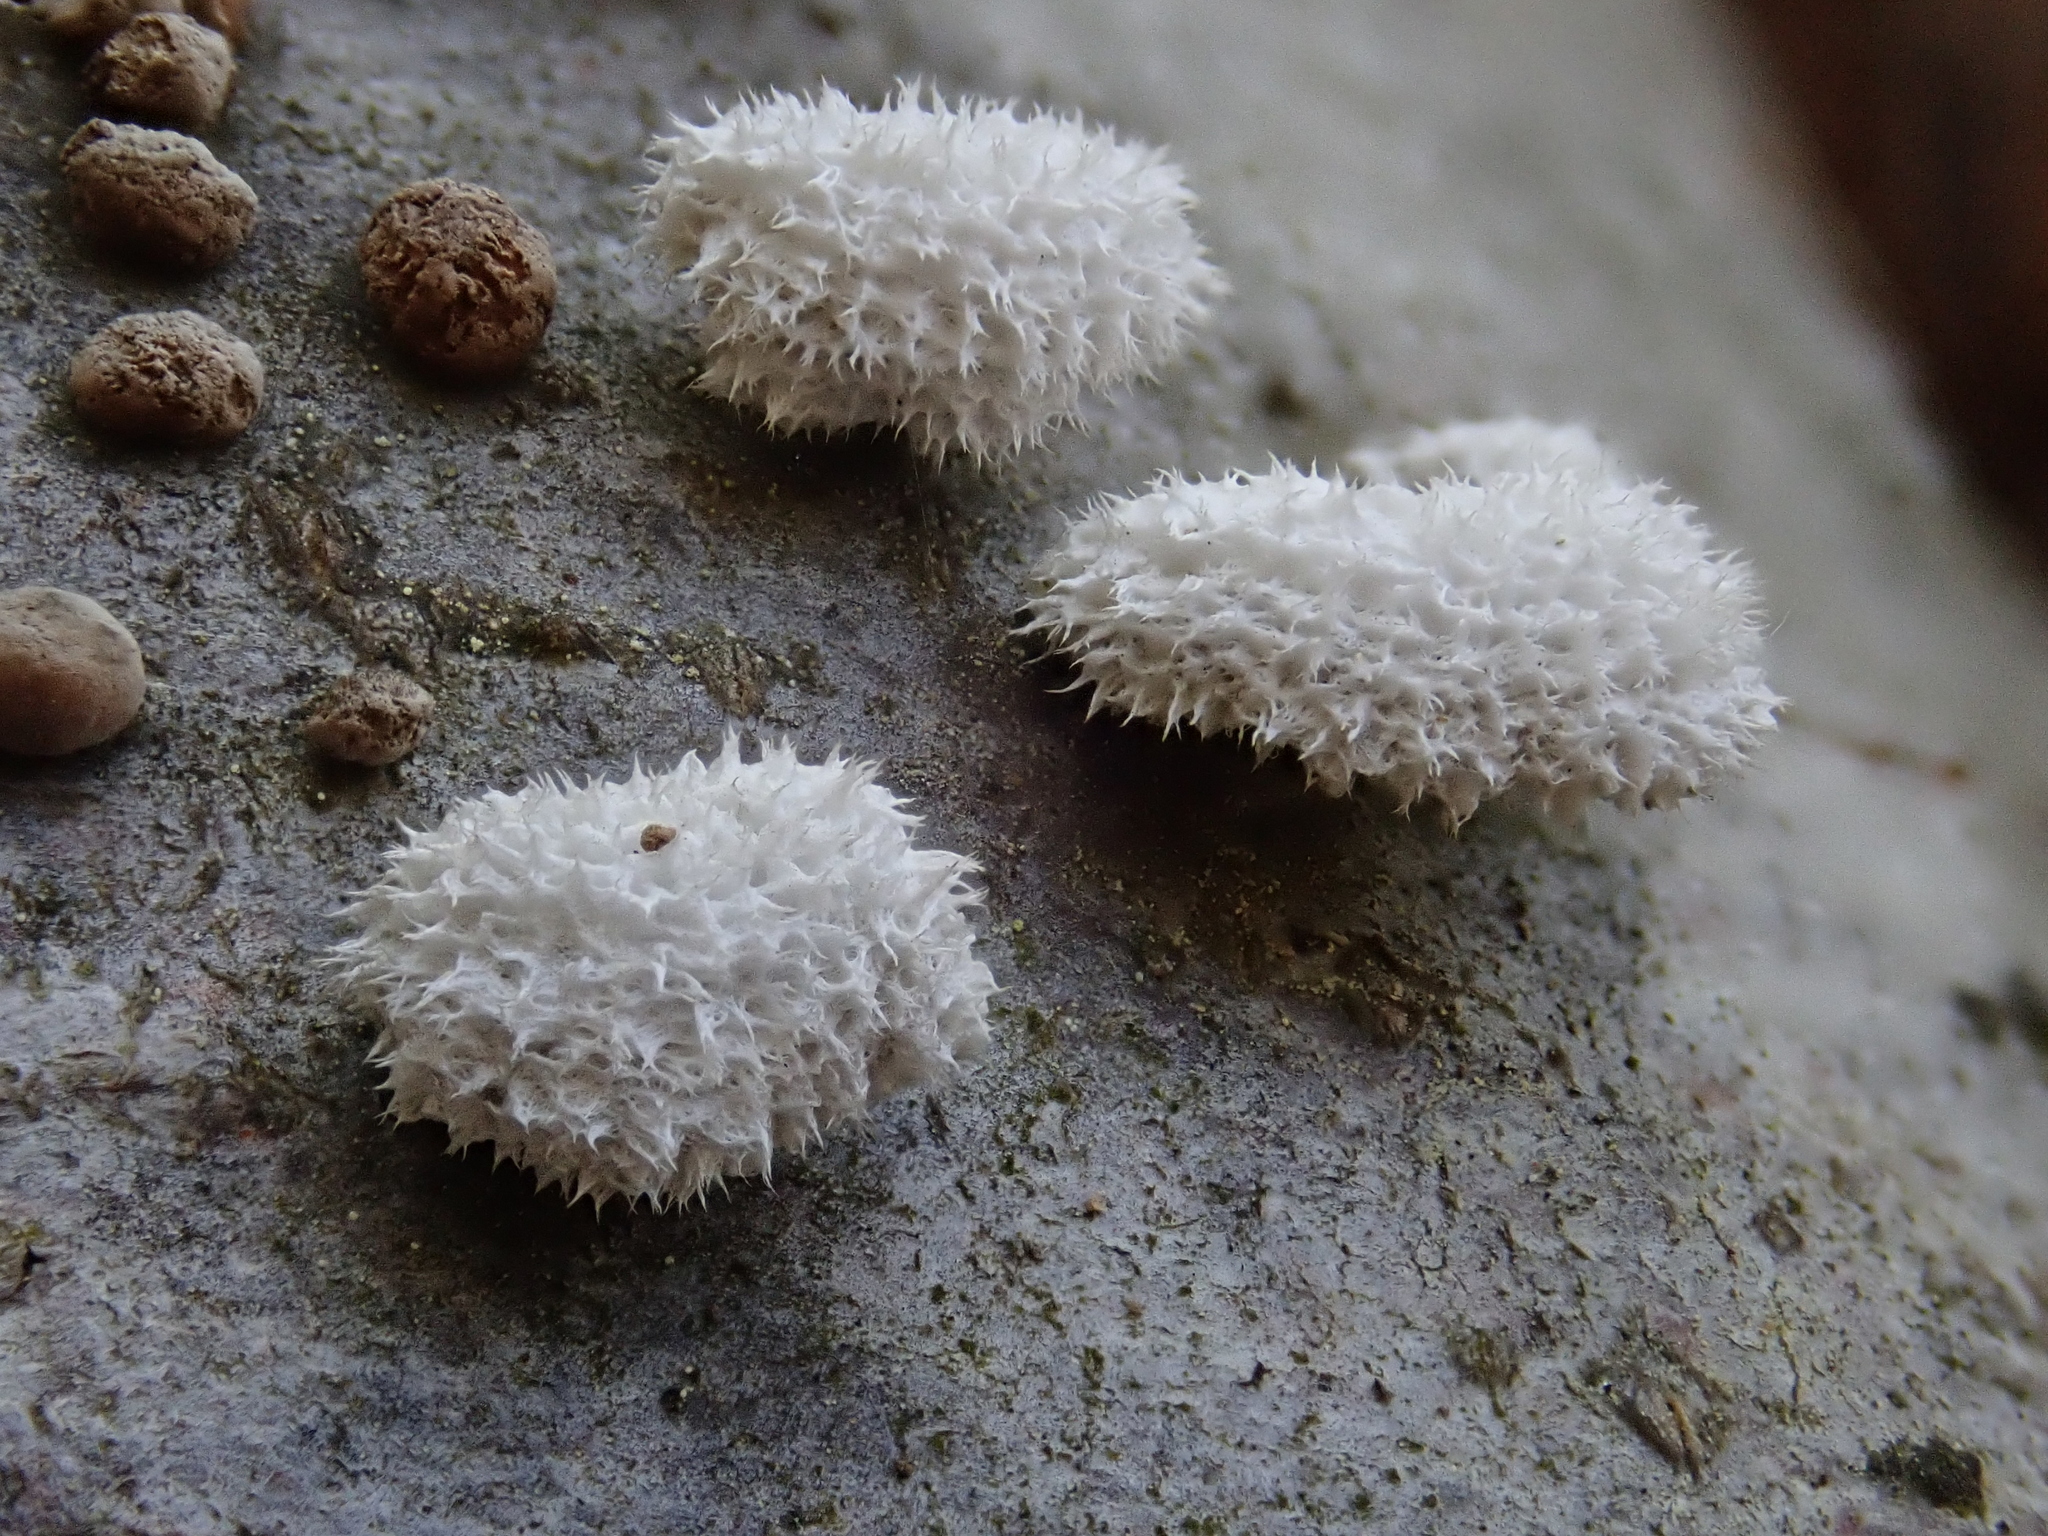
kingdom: Fungi
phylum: Basidiomycota
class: Agaricomycetes
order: Agaricales
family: Schizophyllaceae
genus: Schizophyllum
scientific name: Schizophyllum commune
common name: Common porecrust
